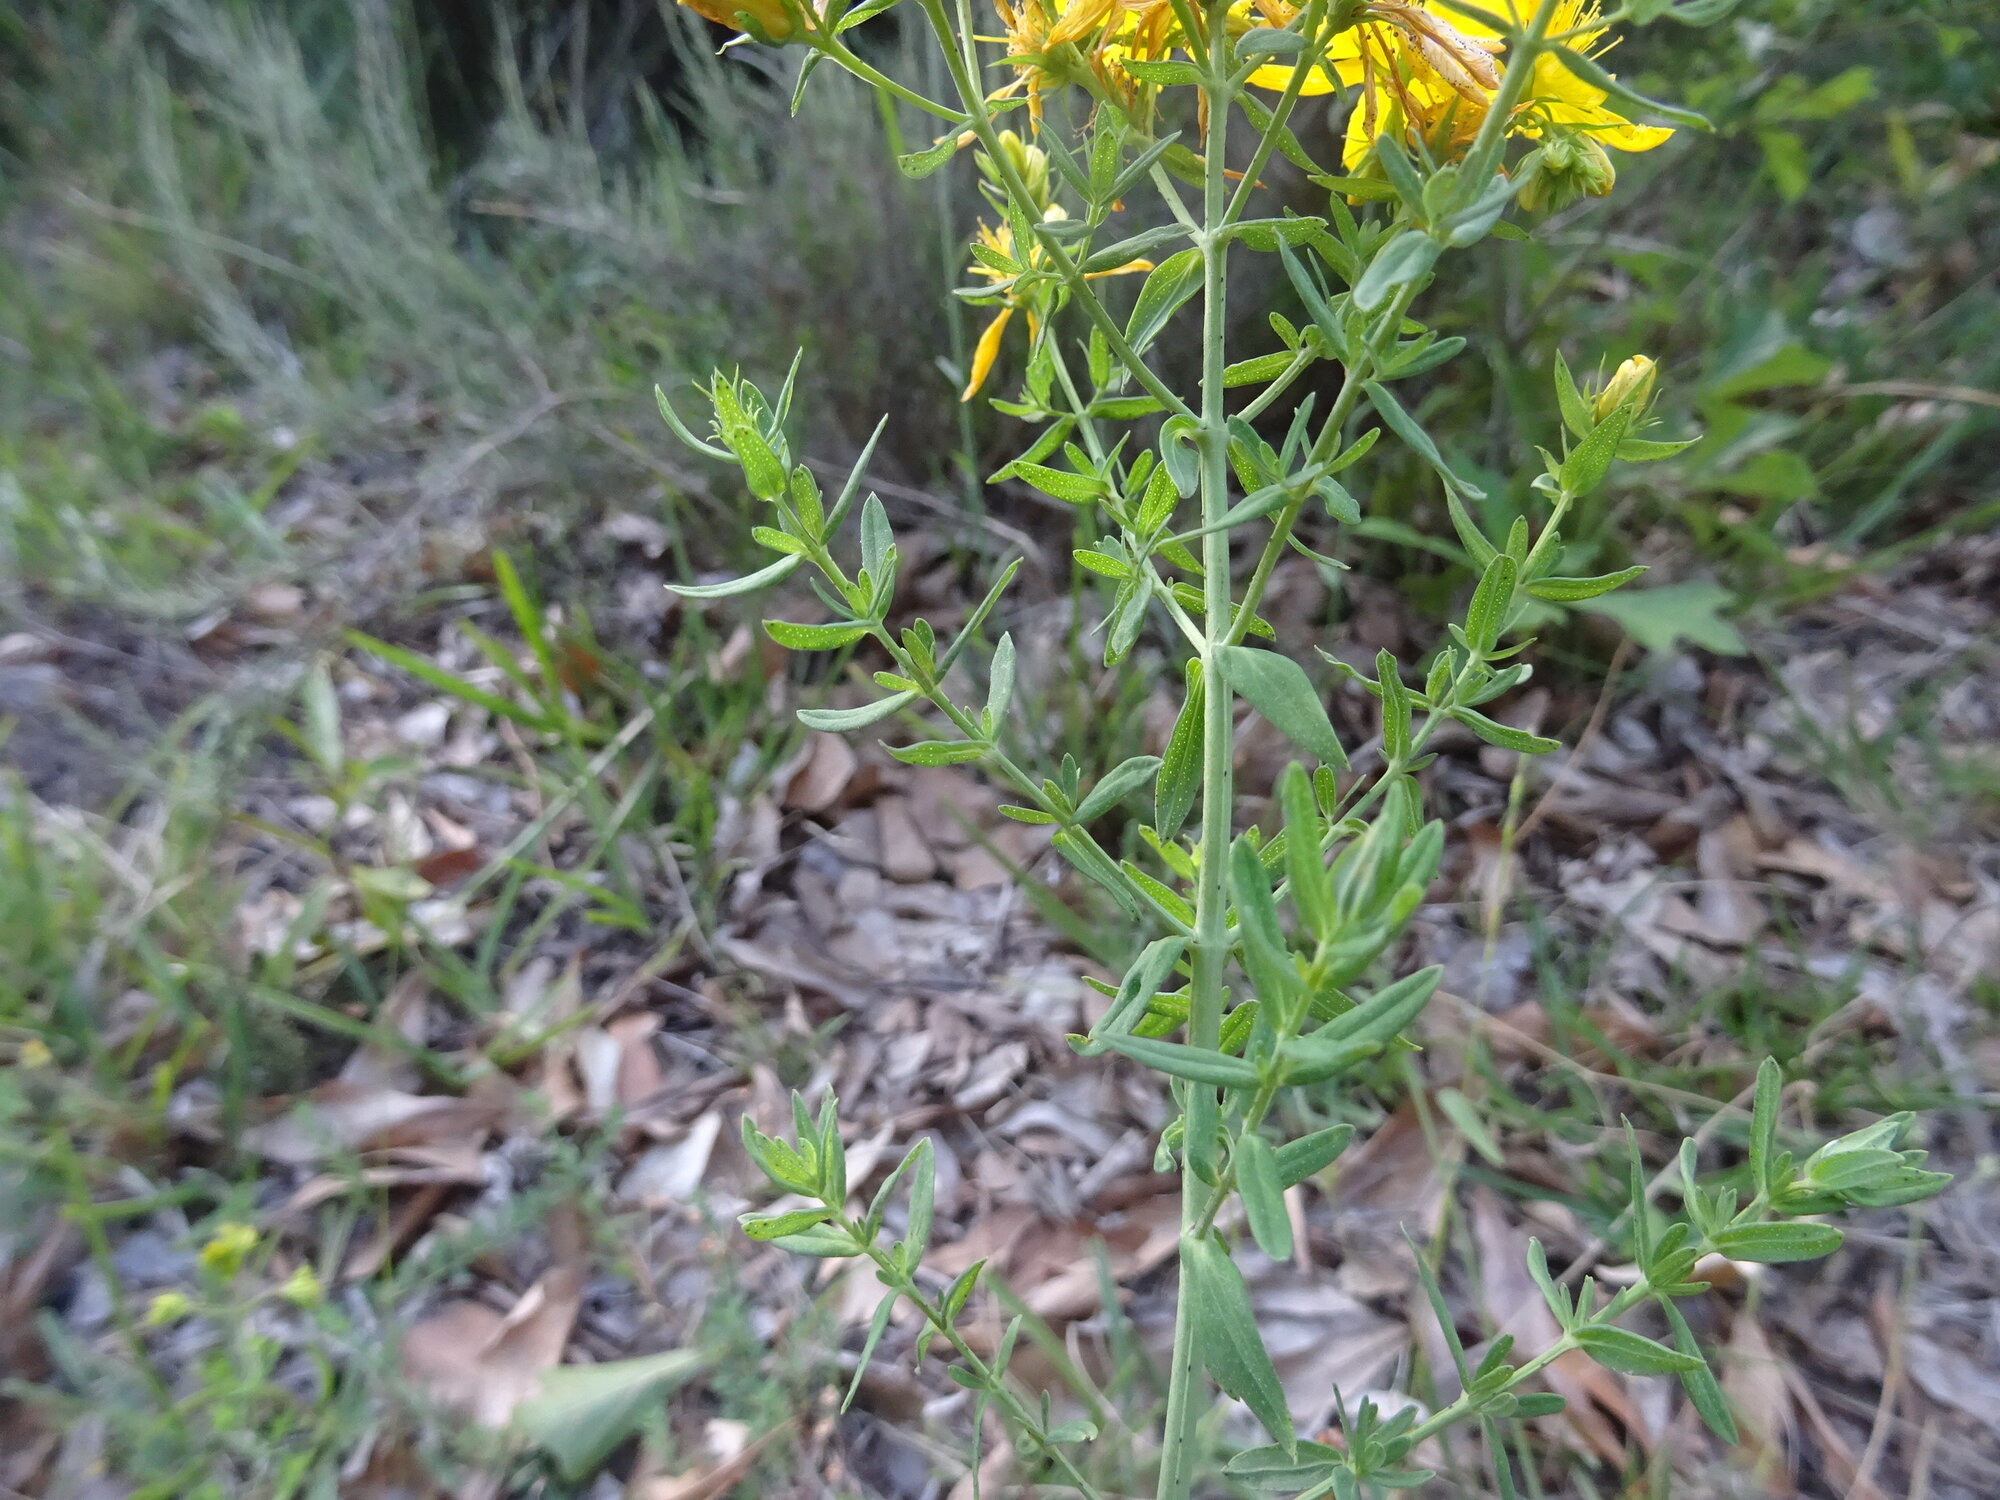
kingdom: Plantae
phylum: Tracheophyta
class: Magnoliopsida
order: Malpighiales
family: Hypericaceae
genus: Hypericum
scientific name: Hypericum perforatum
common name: Common st. johnswort
